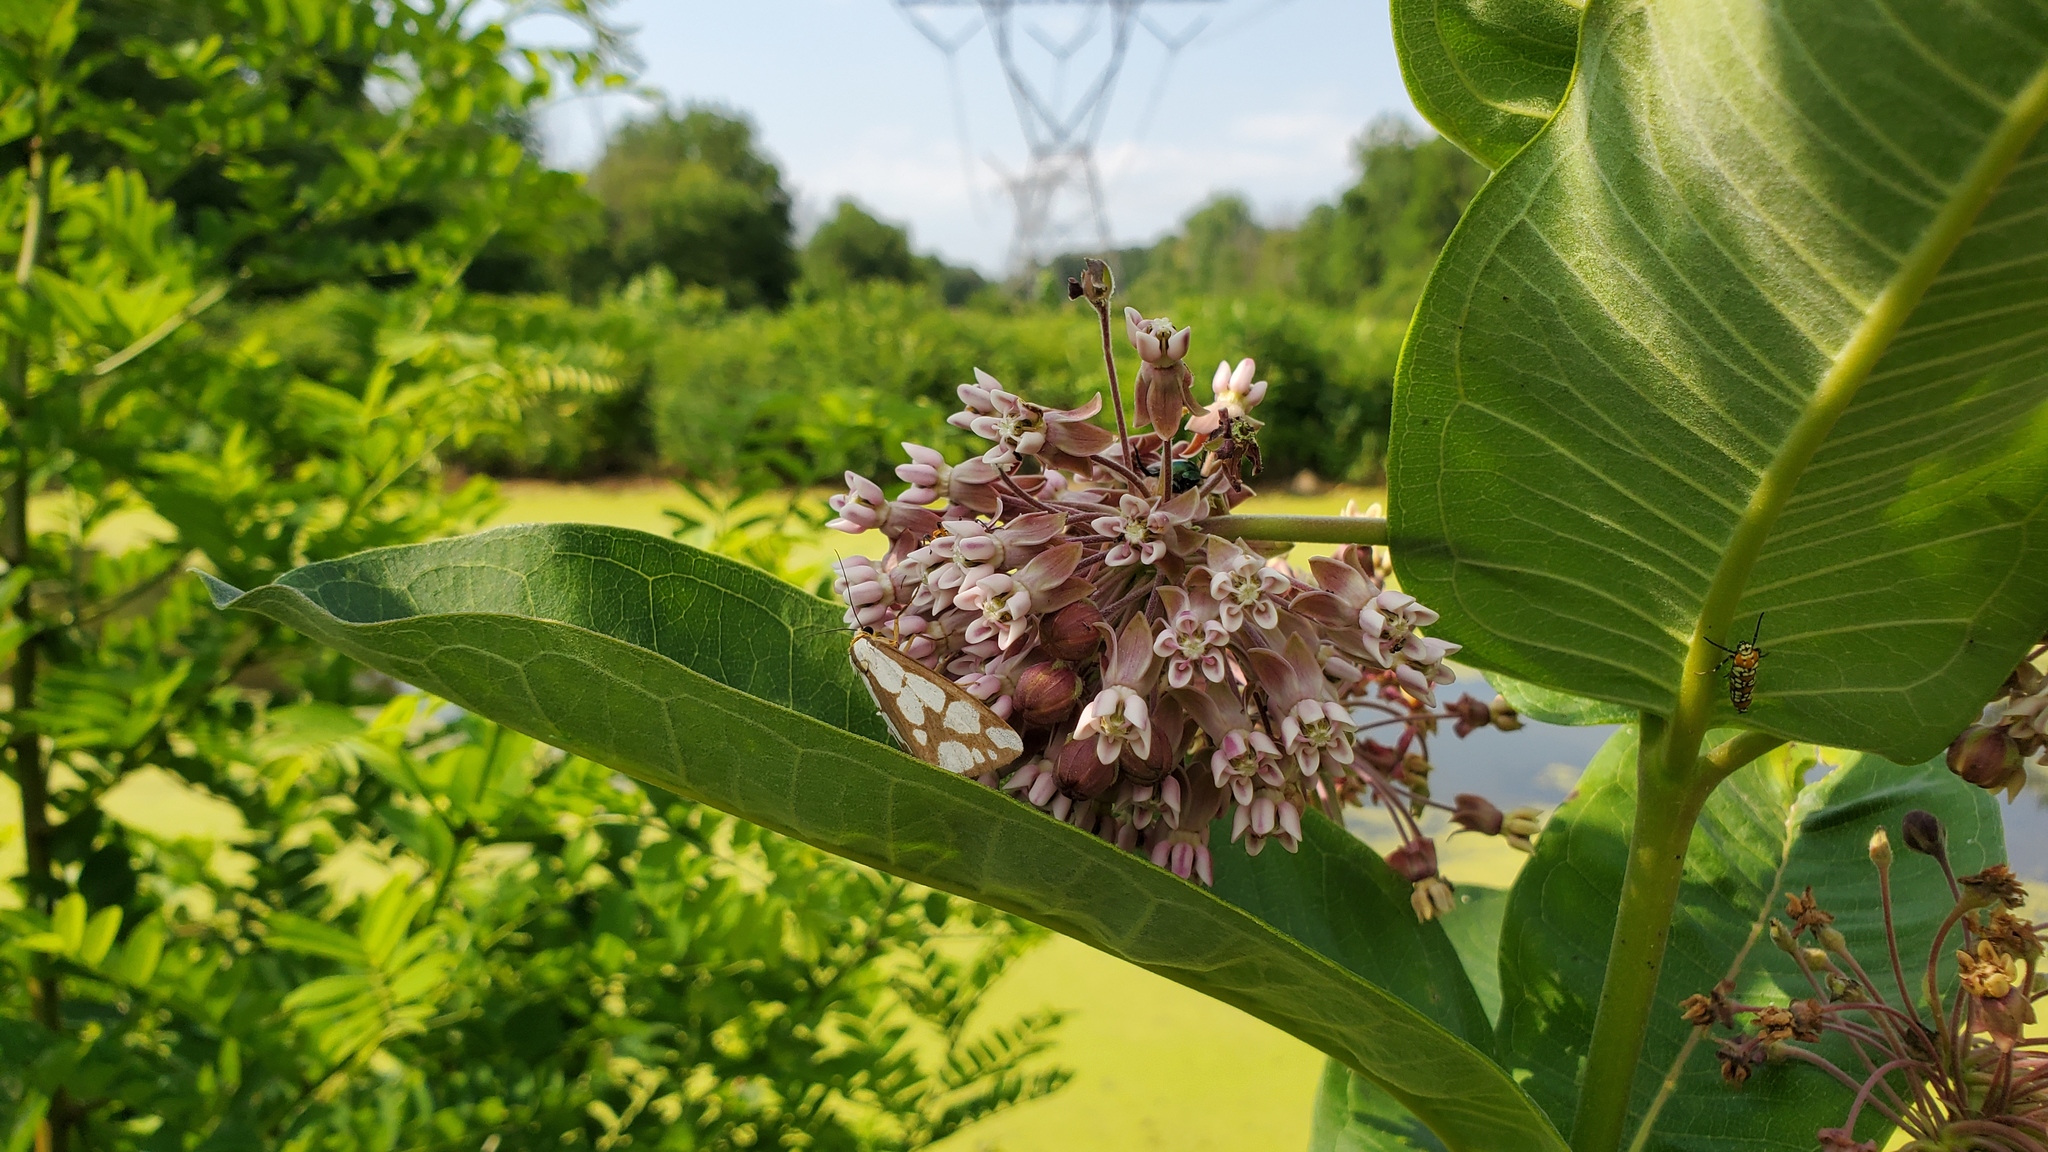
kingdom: Plantae
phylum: Tracheophyta
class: Magnoliopsida
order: Gentianales
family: Apocynaceae
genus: Asclepias
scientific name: Asclepias syriaca
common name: Common milkweed
